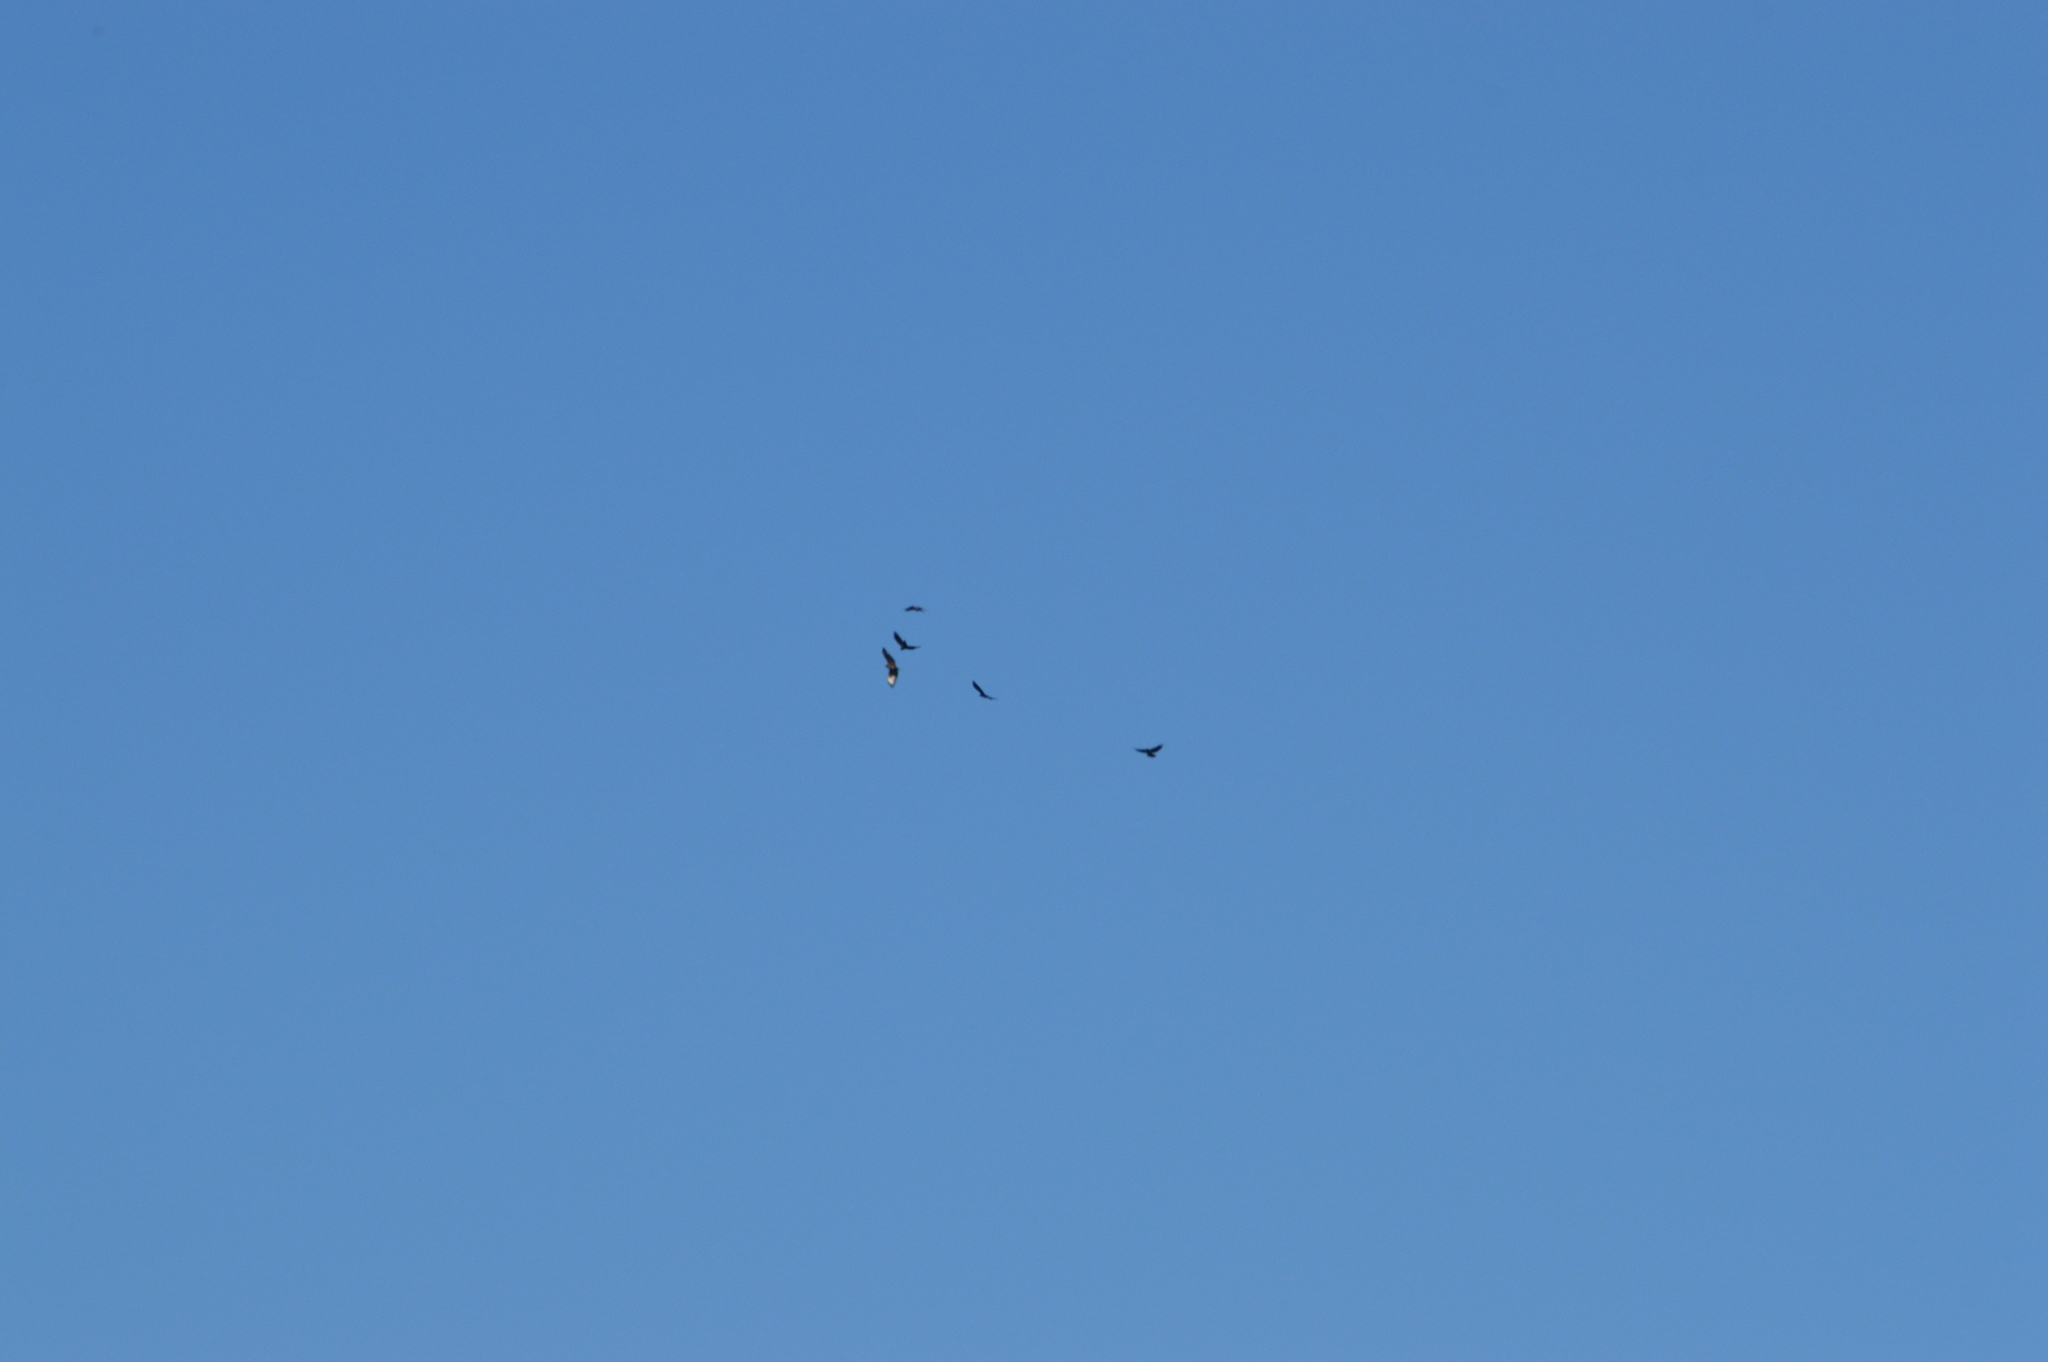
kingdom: Animalia
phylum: Chordata
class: Aves
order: Accipitriformes
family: Accipitridae
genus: Buteo
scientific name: Buteo buteo
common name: Common buzzard
